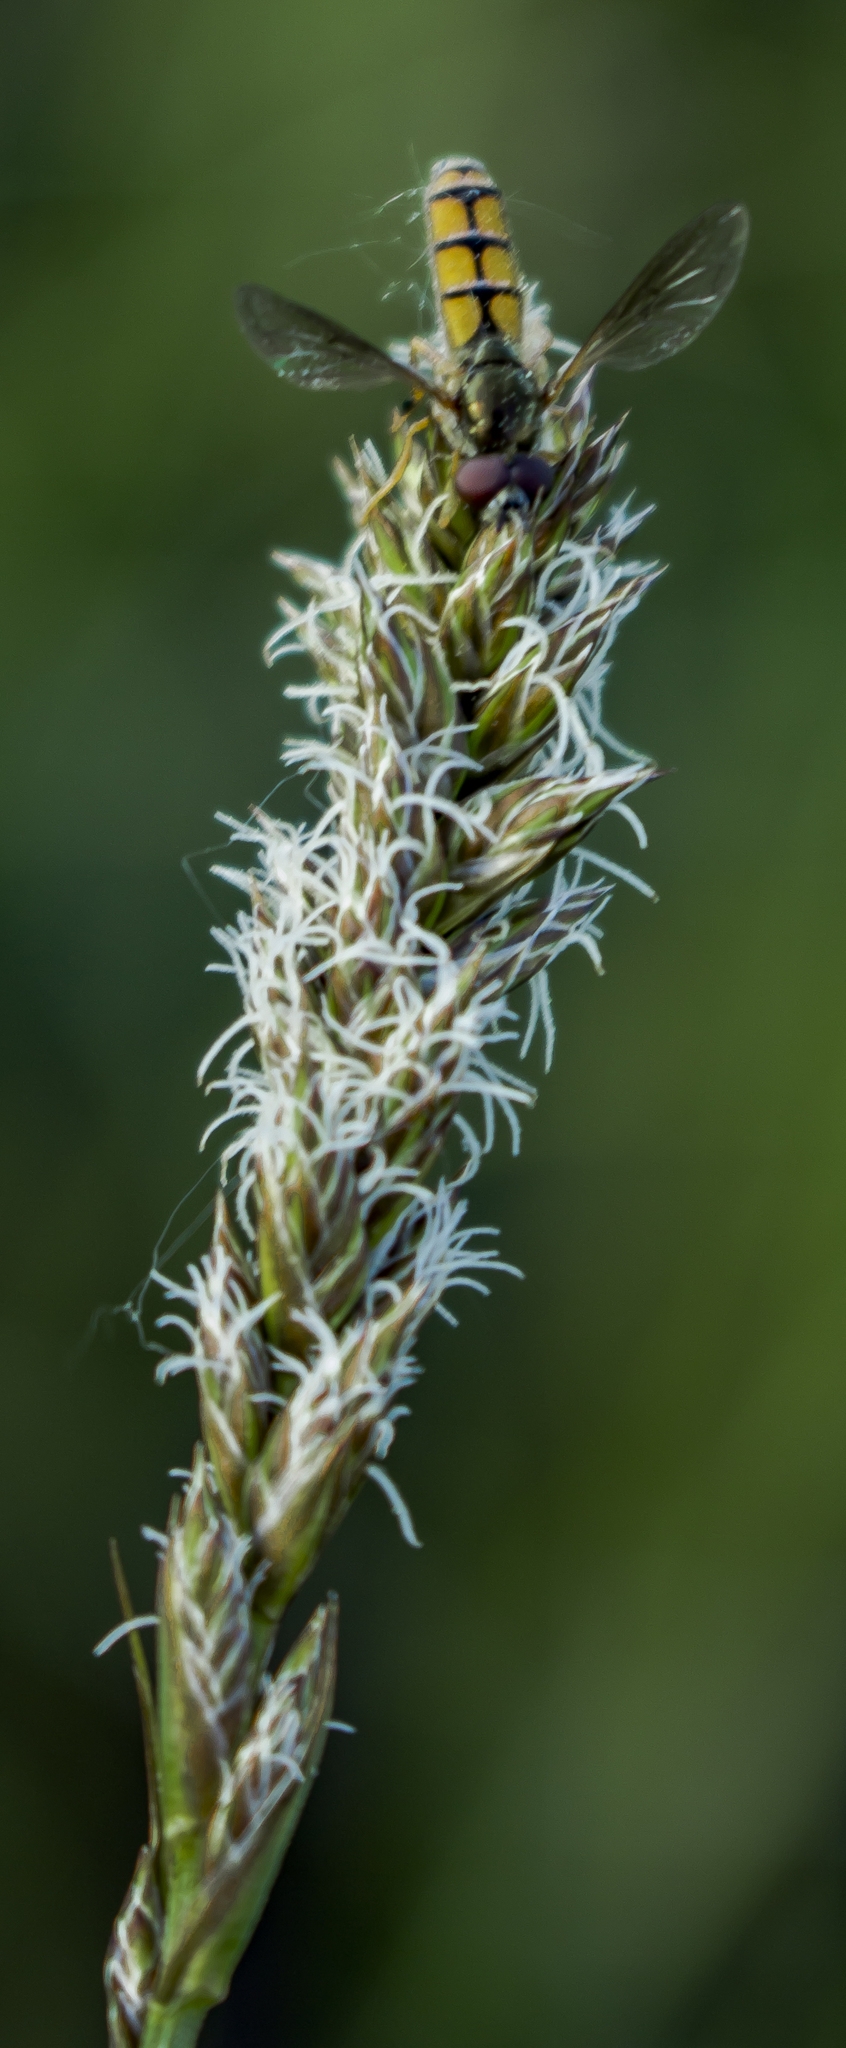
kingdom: Plantae
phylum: Tracheophyta
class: Liliopsida
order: Poales
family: Cyperaceae
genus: Carex
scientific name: Carex sartwellii
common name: Sartwell's sedge
